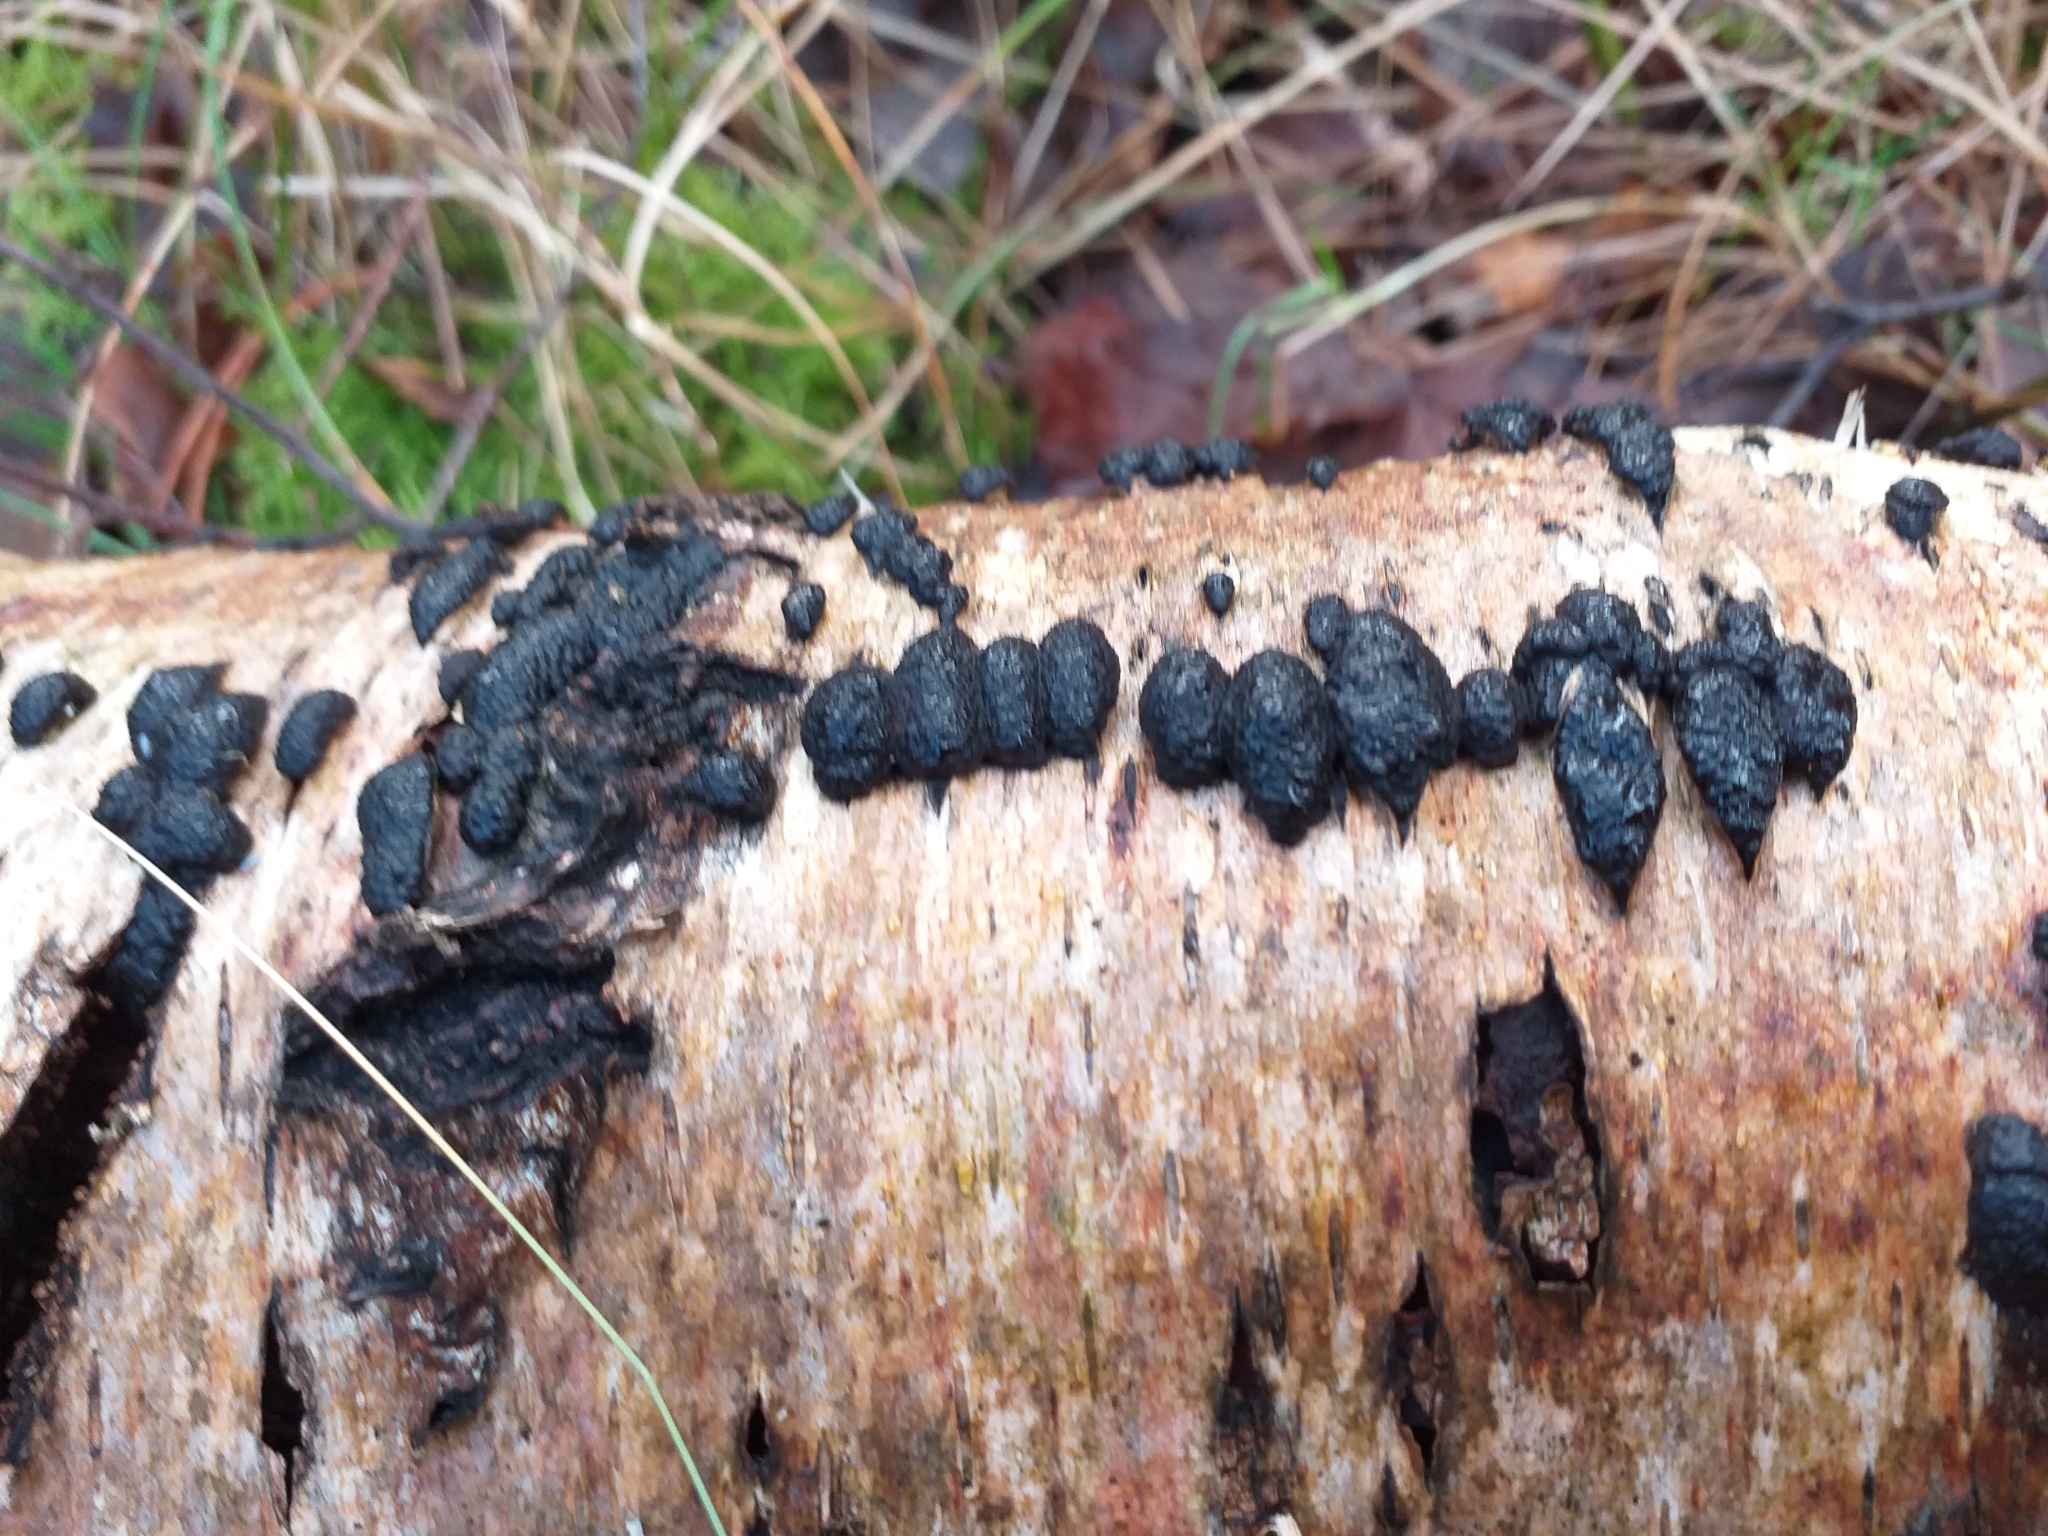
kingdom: Fungi
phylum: Ascomycota
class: Sordariomycetes
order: Xylariales
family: Hypoxylaceae
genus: Jackrogersella
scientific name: Jackrogersella multiformis
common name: Birch woodwart
